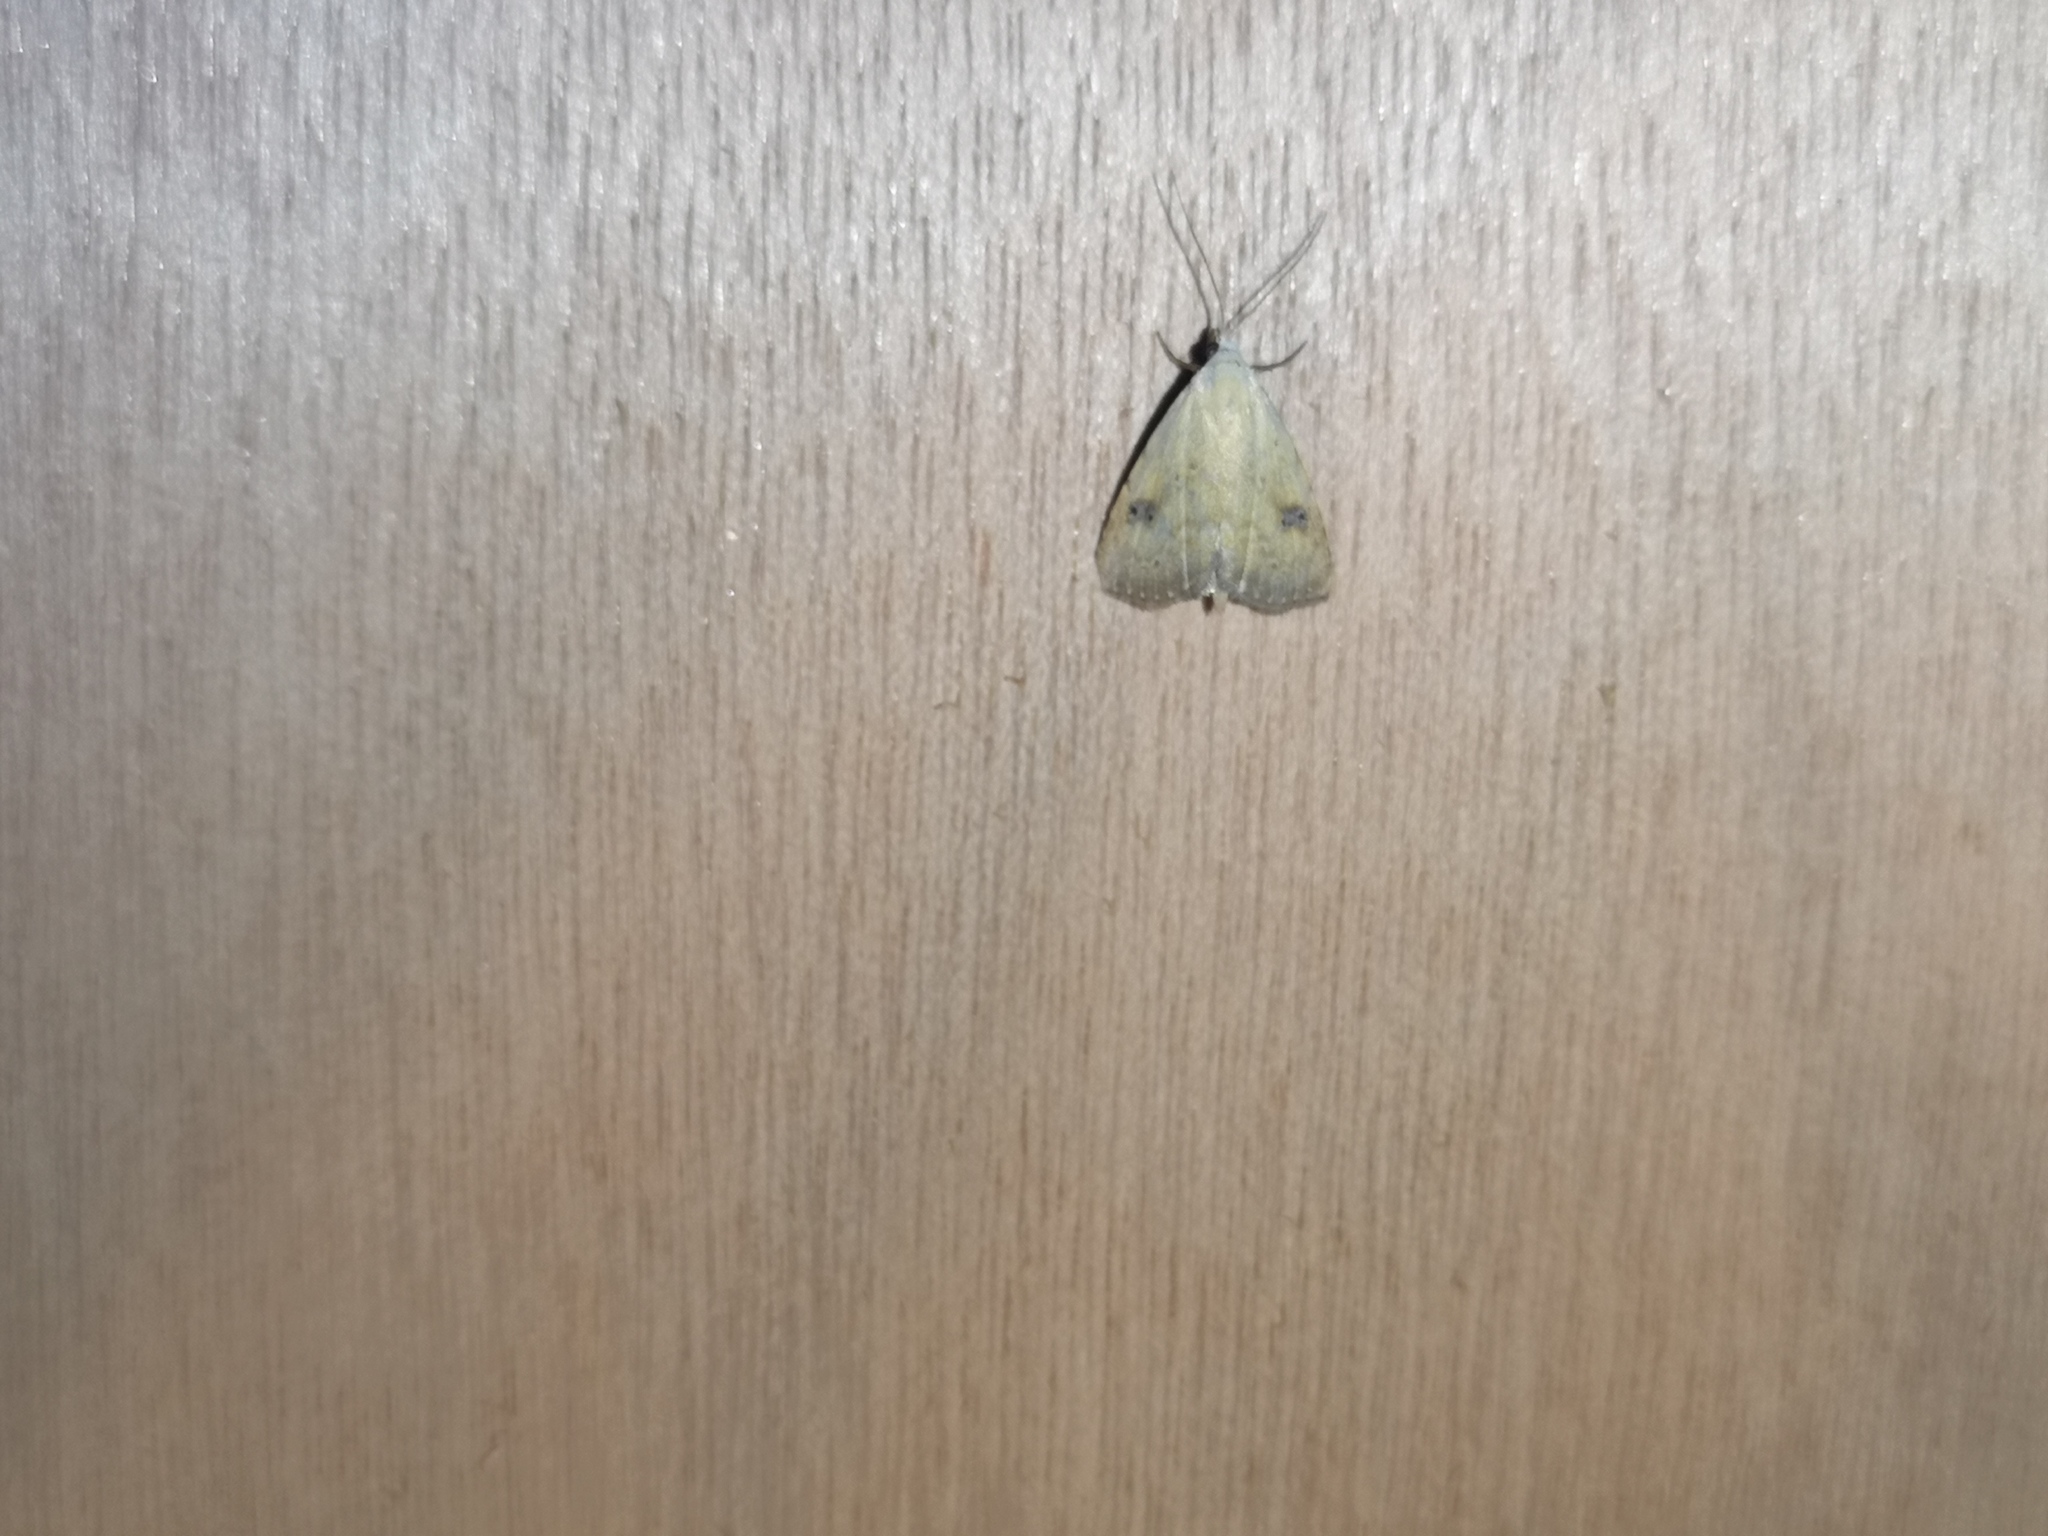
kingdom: Animalia
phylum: Arthropoda
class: Insecta
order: Lepidoptera
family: Erebidae
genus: Rivula
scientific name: Rivula sericealis
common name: Straw dot
